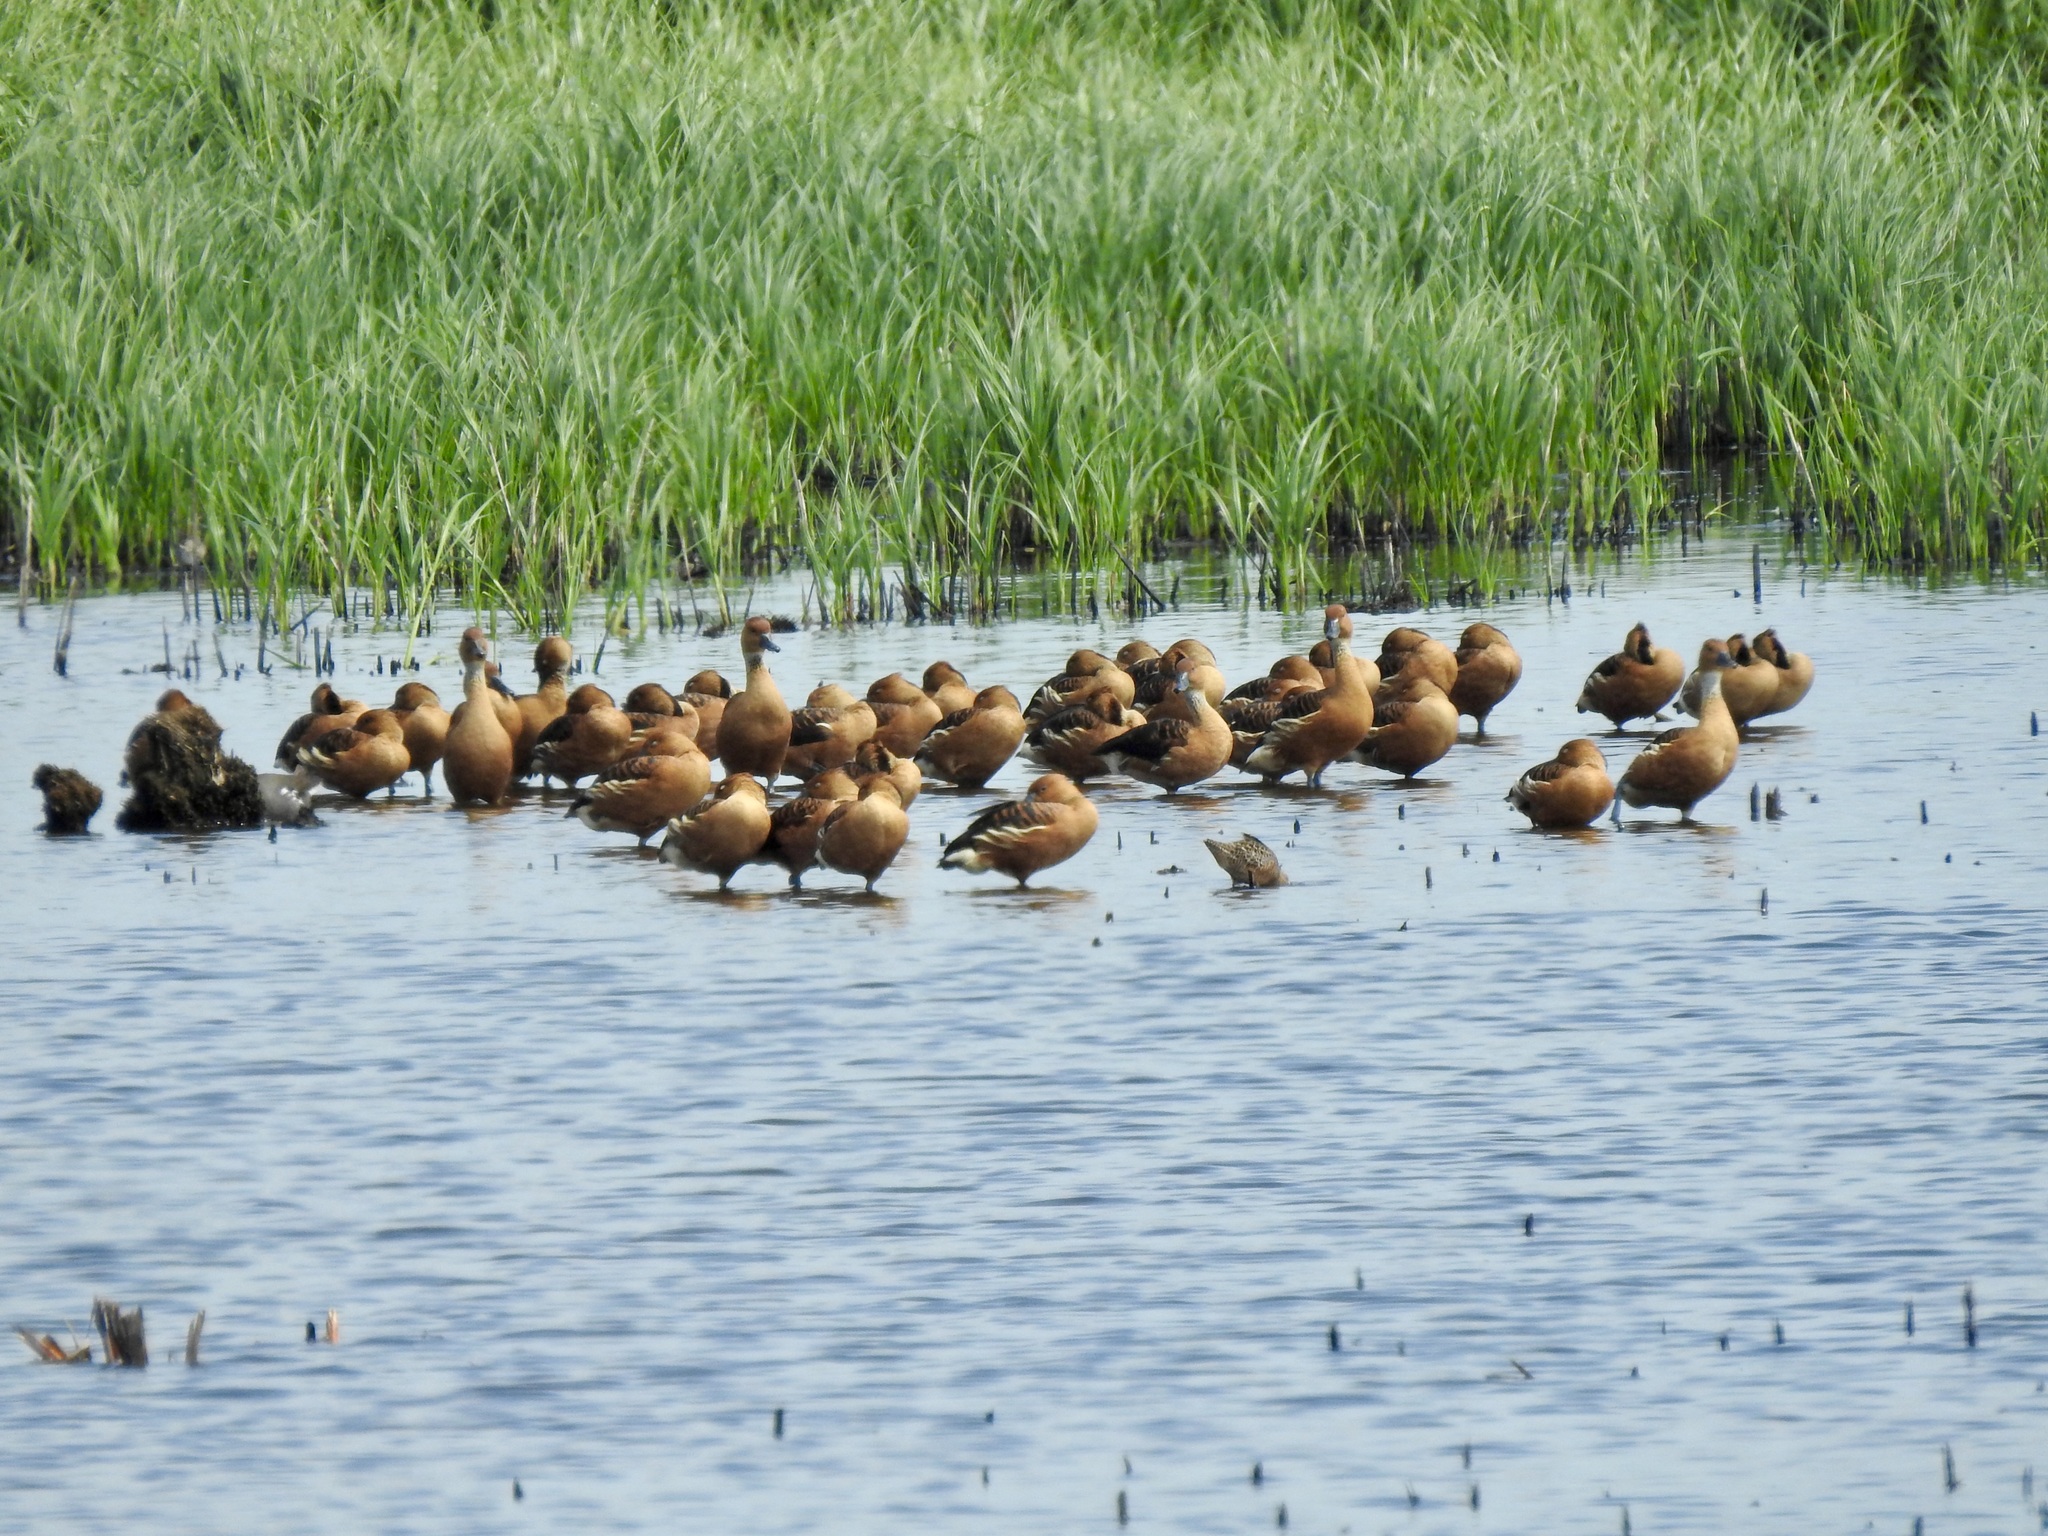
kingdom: Animalia
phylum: Chordata
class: Aves
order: Anseriformes
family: Anatidae
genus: Dendrocygna
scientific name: Dendrocygna bicolor
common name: Fulvous whistling duck
